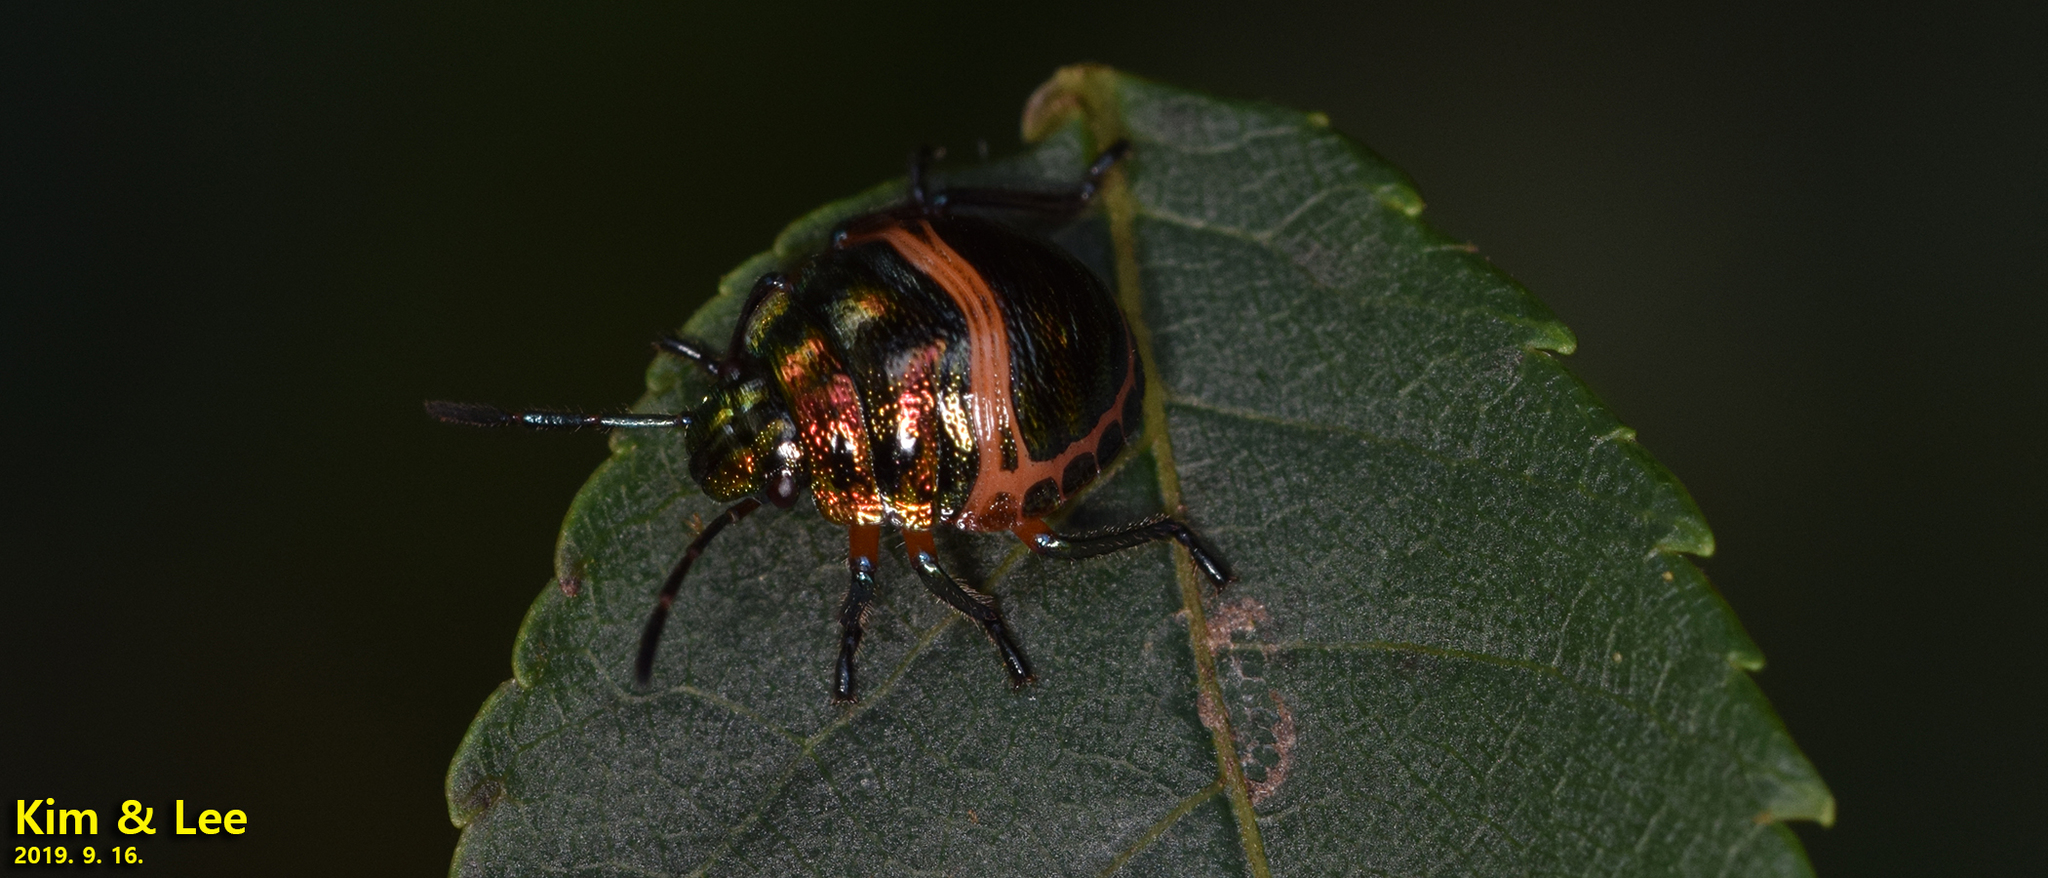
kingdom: Animalia
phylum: Arthropoda
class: Insecta
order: Hemiptera
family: Scutelleridae
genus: Poecilocoris
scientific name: Poecilocoris lewisi
